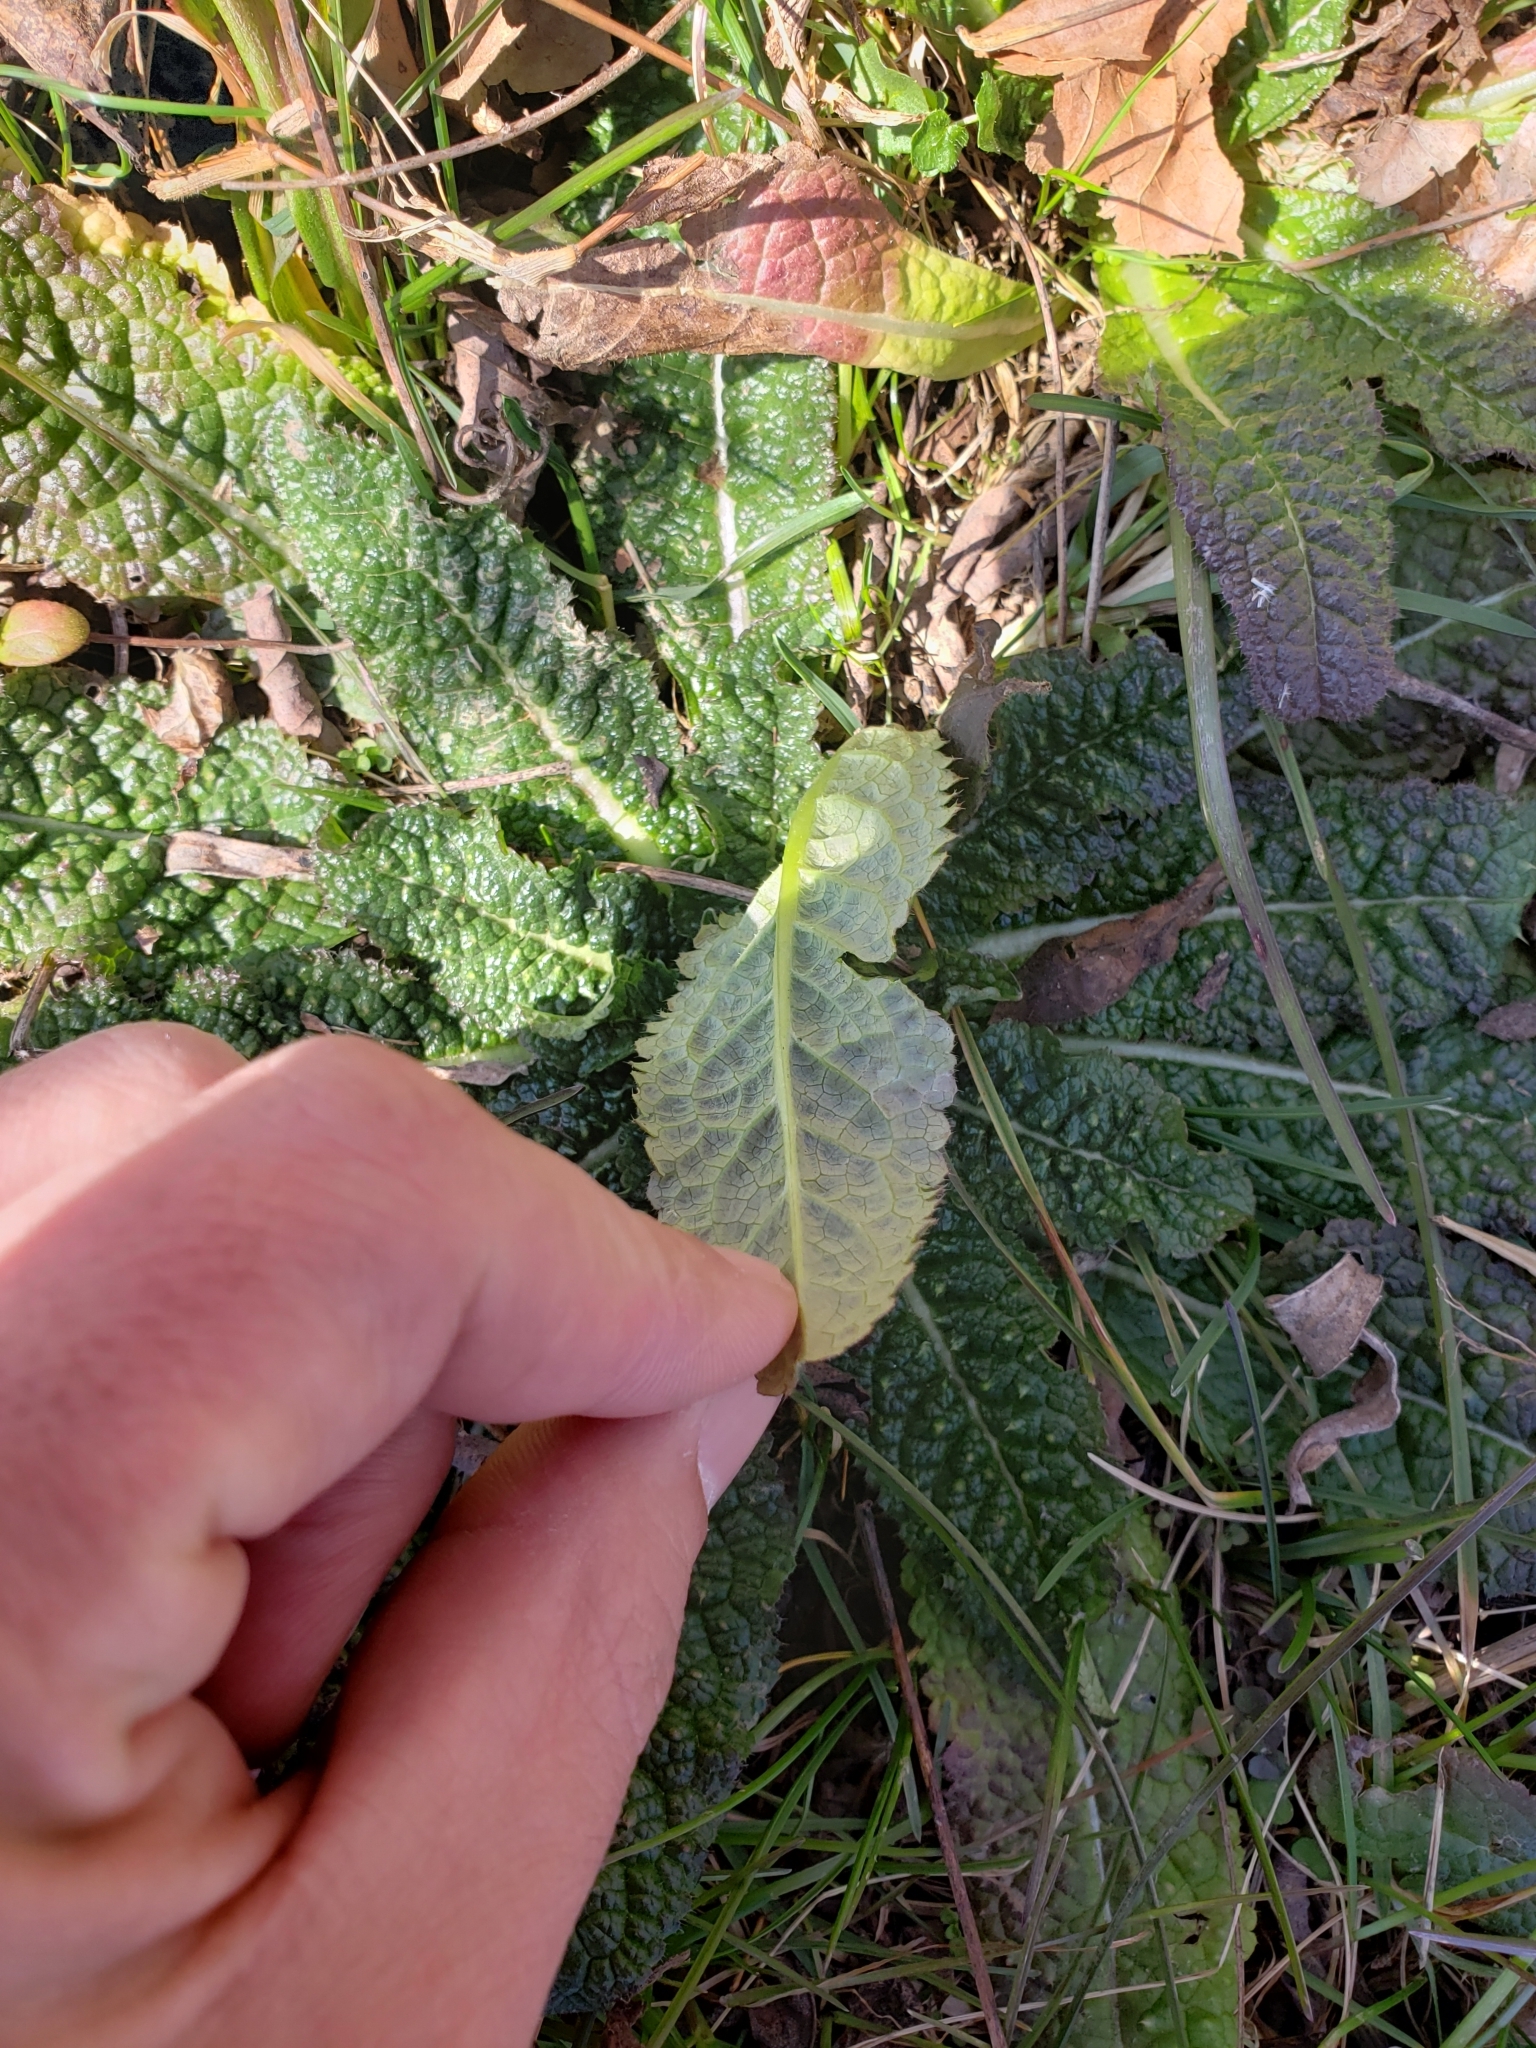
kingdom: Plantae
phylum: Tracheophyta
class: Magnoliopsida
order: Dipsacales
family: Caprifoliaceae
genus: Dipsacus
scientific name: Dipsacus fullonum
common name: Teasel
